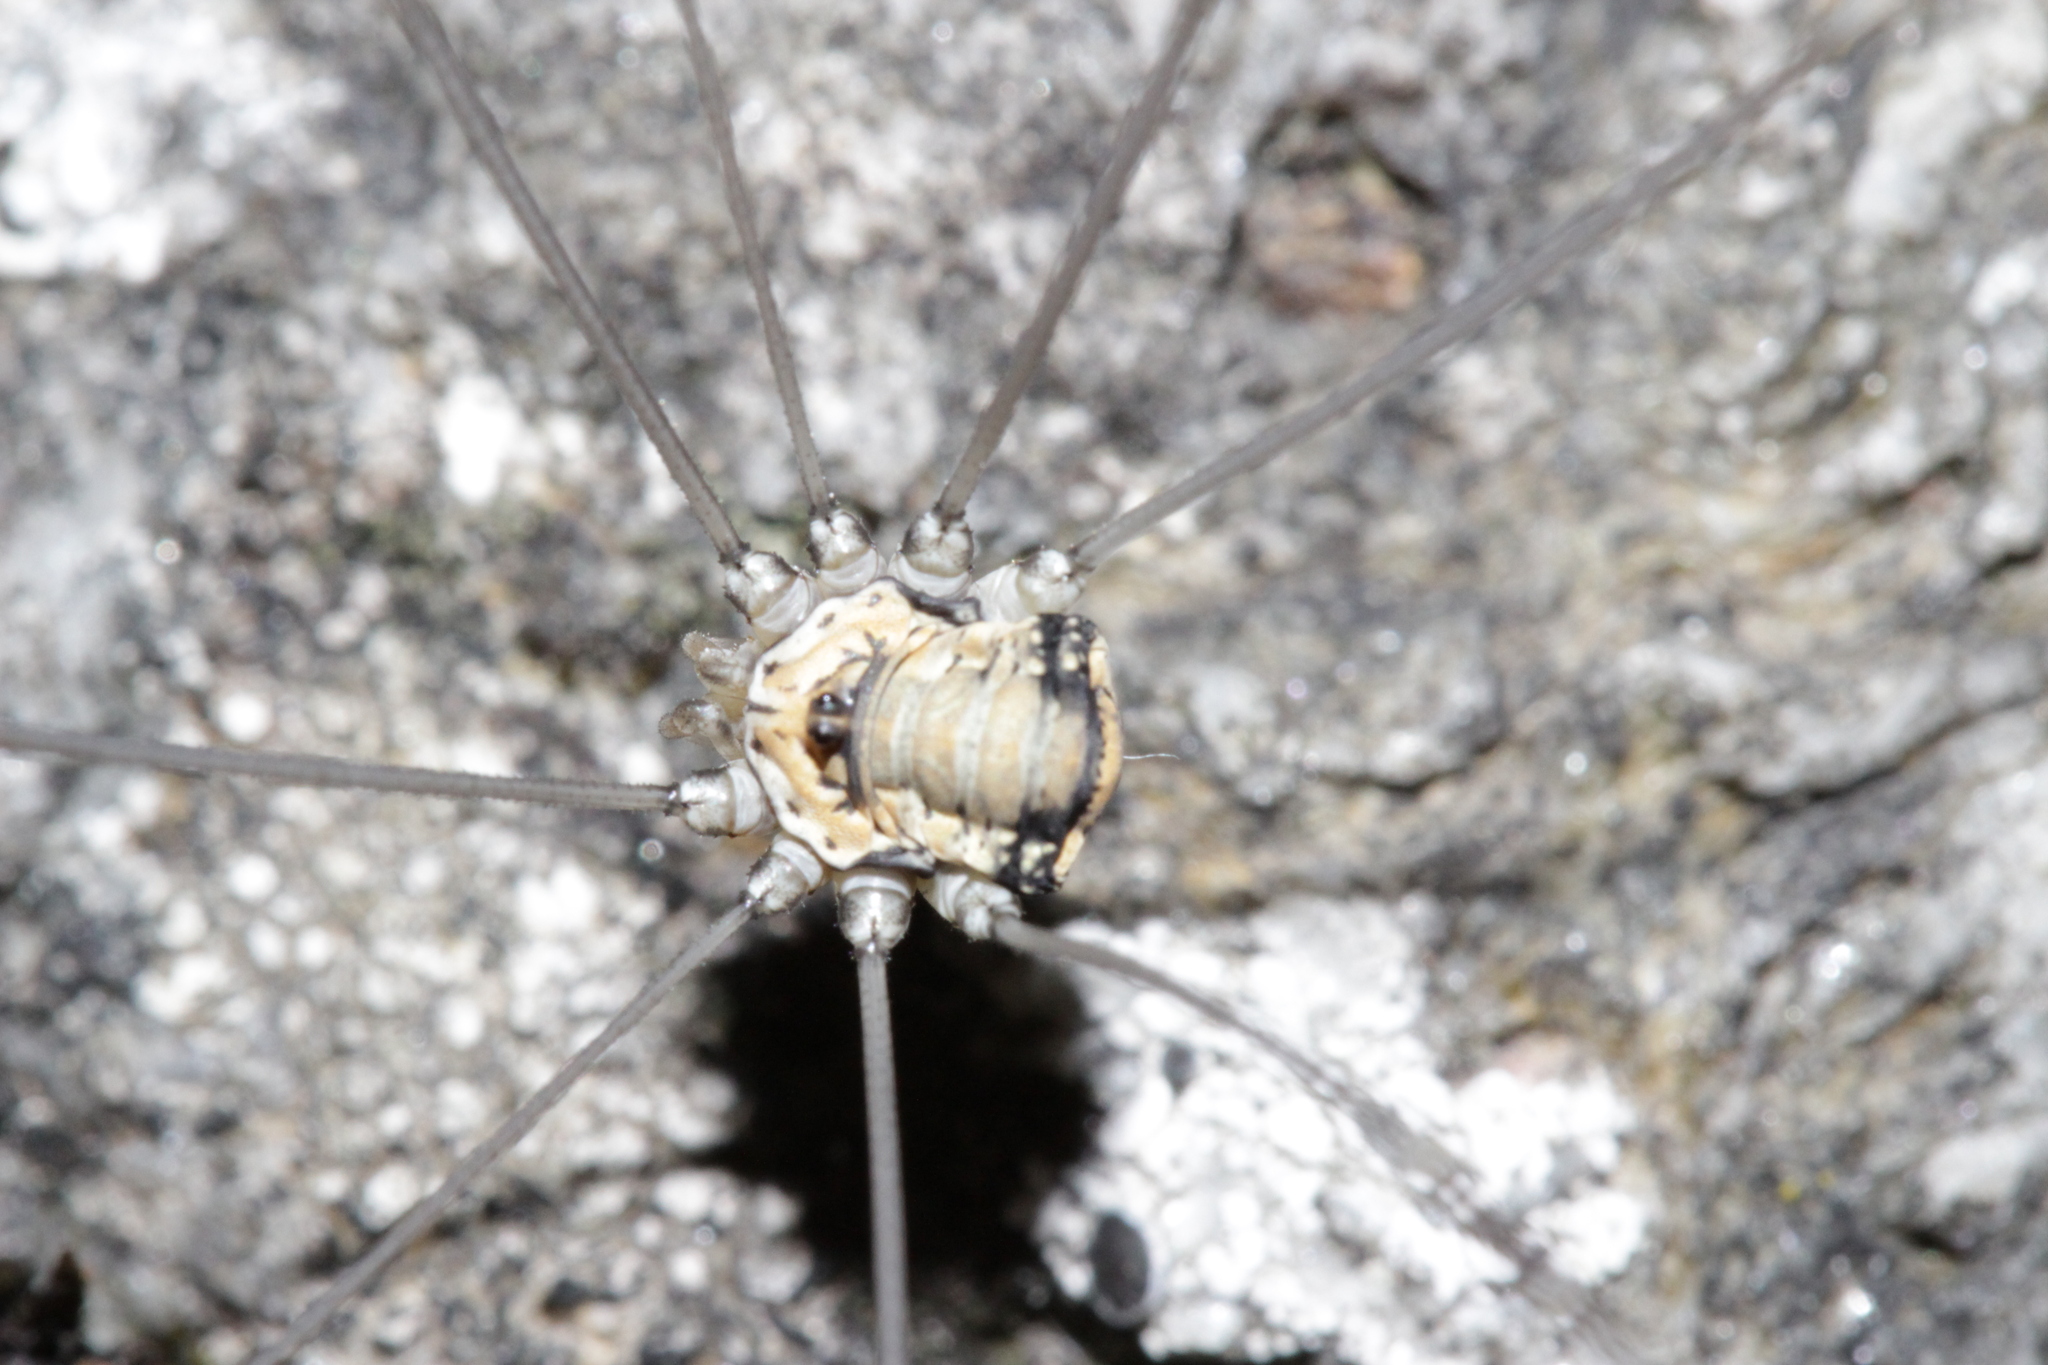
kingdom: Animalia
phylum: Arthropoda
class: Arachnida
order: Opiliones
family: Sclerosomatidae
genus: Leiobunum
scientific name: Leiobunum limbatum
